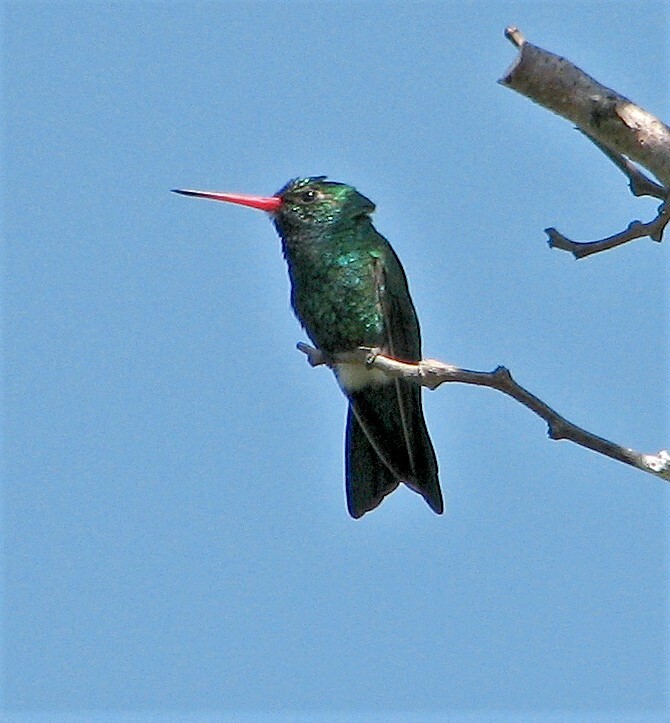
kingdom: Animalia
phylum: Chordata
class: Aves
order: Apodiformes
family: Trochilidae
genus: Chlorostilbon
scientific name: Chlorostilbon lucidus
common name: Glittering-bellied emerald
